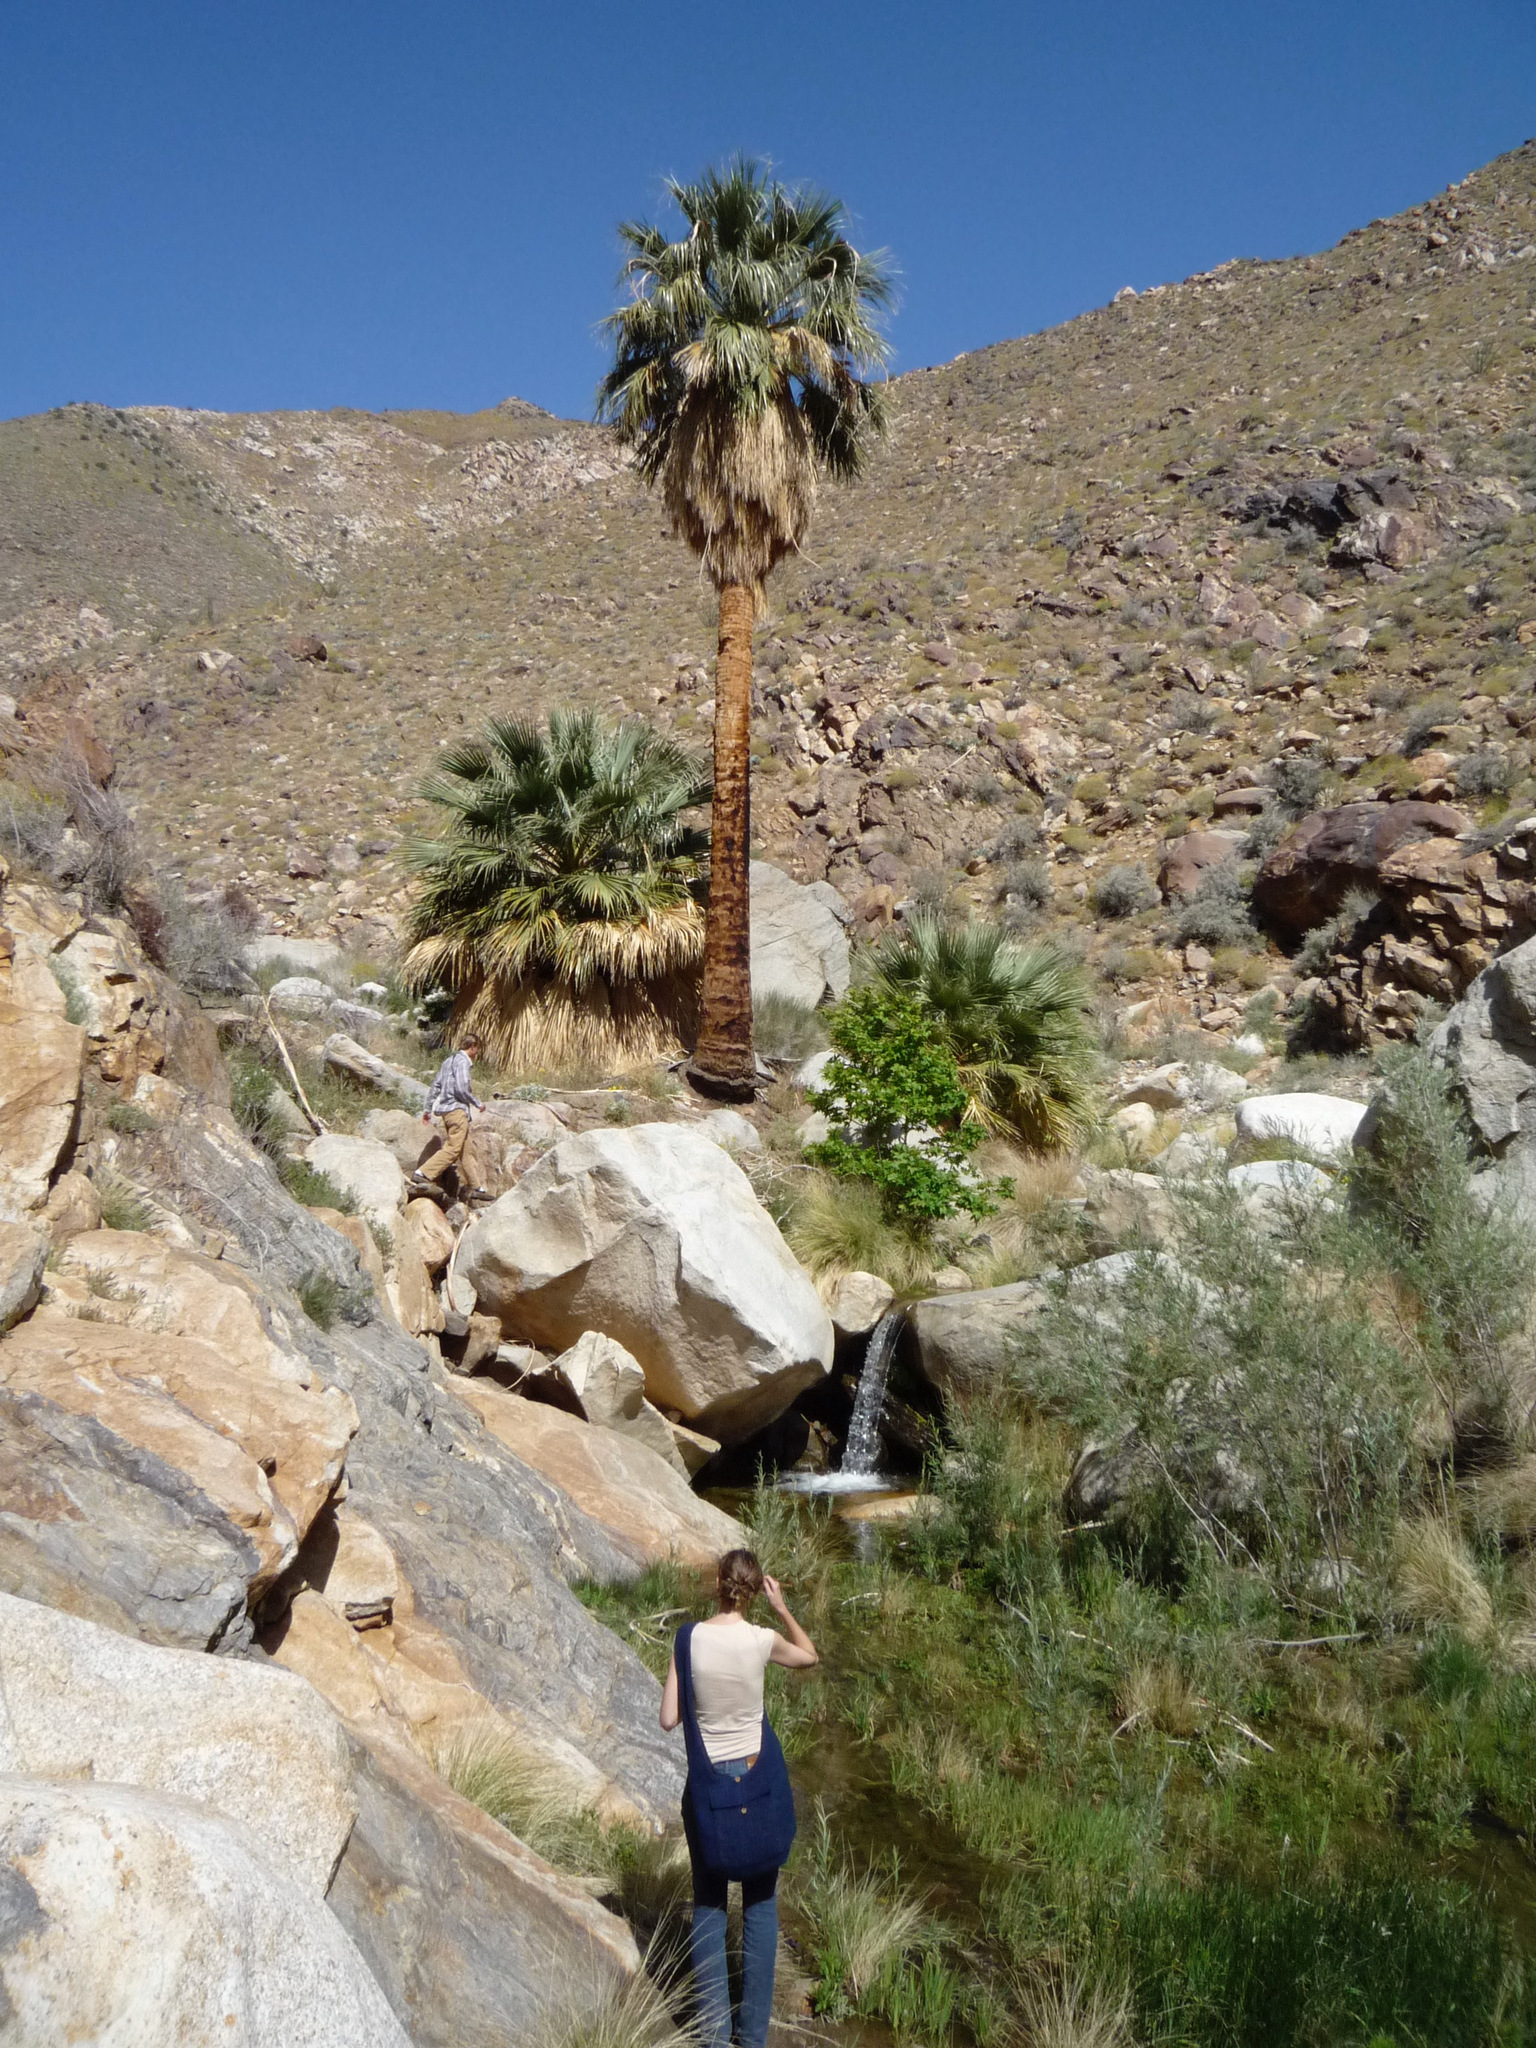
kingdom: Plantae
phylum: Tracheophyta
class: Liliopsida
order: Arecales
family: Arecaceae
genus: Washingtonia
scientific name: Washingtonia filifera
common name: California fan palm
